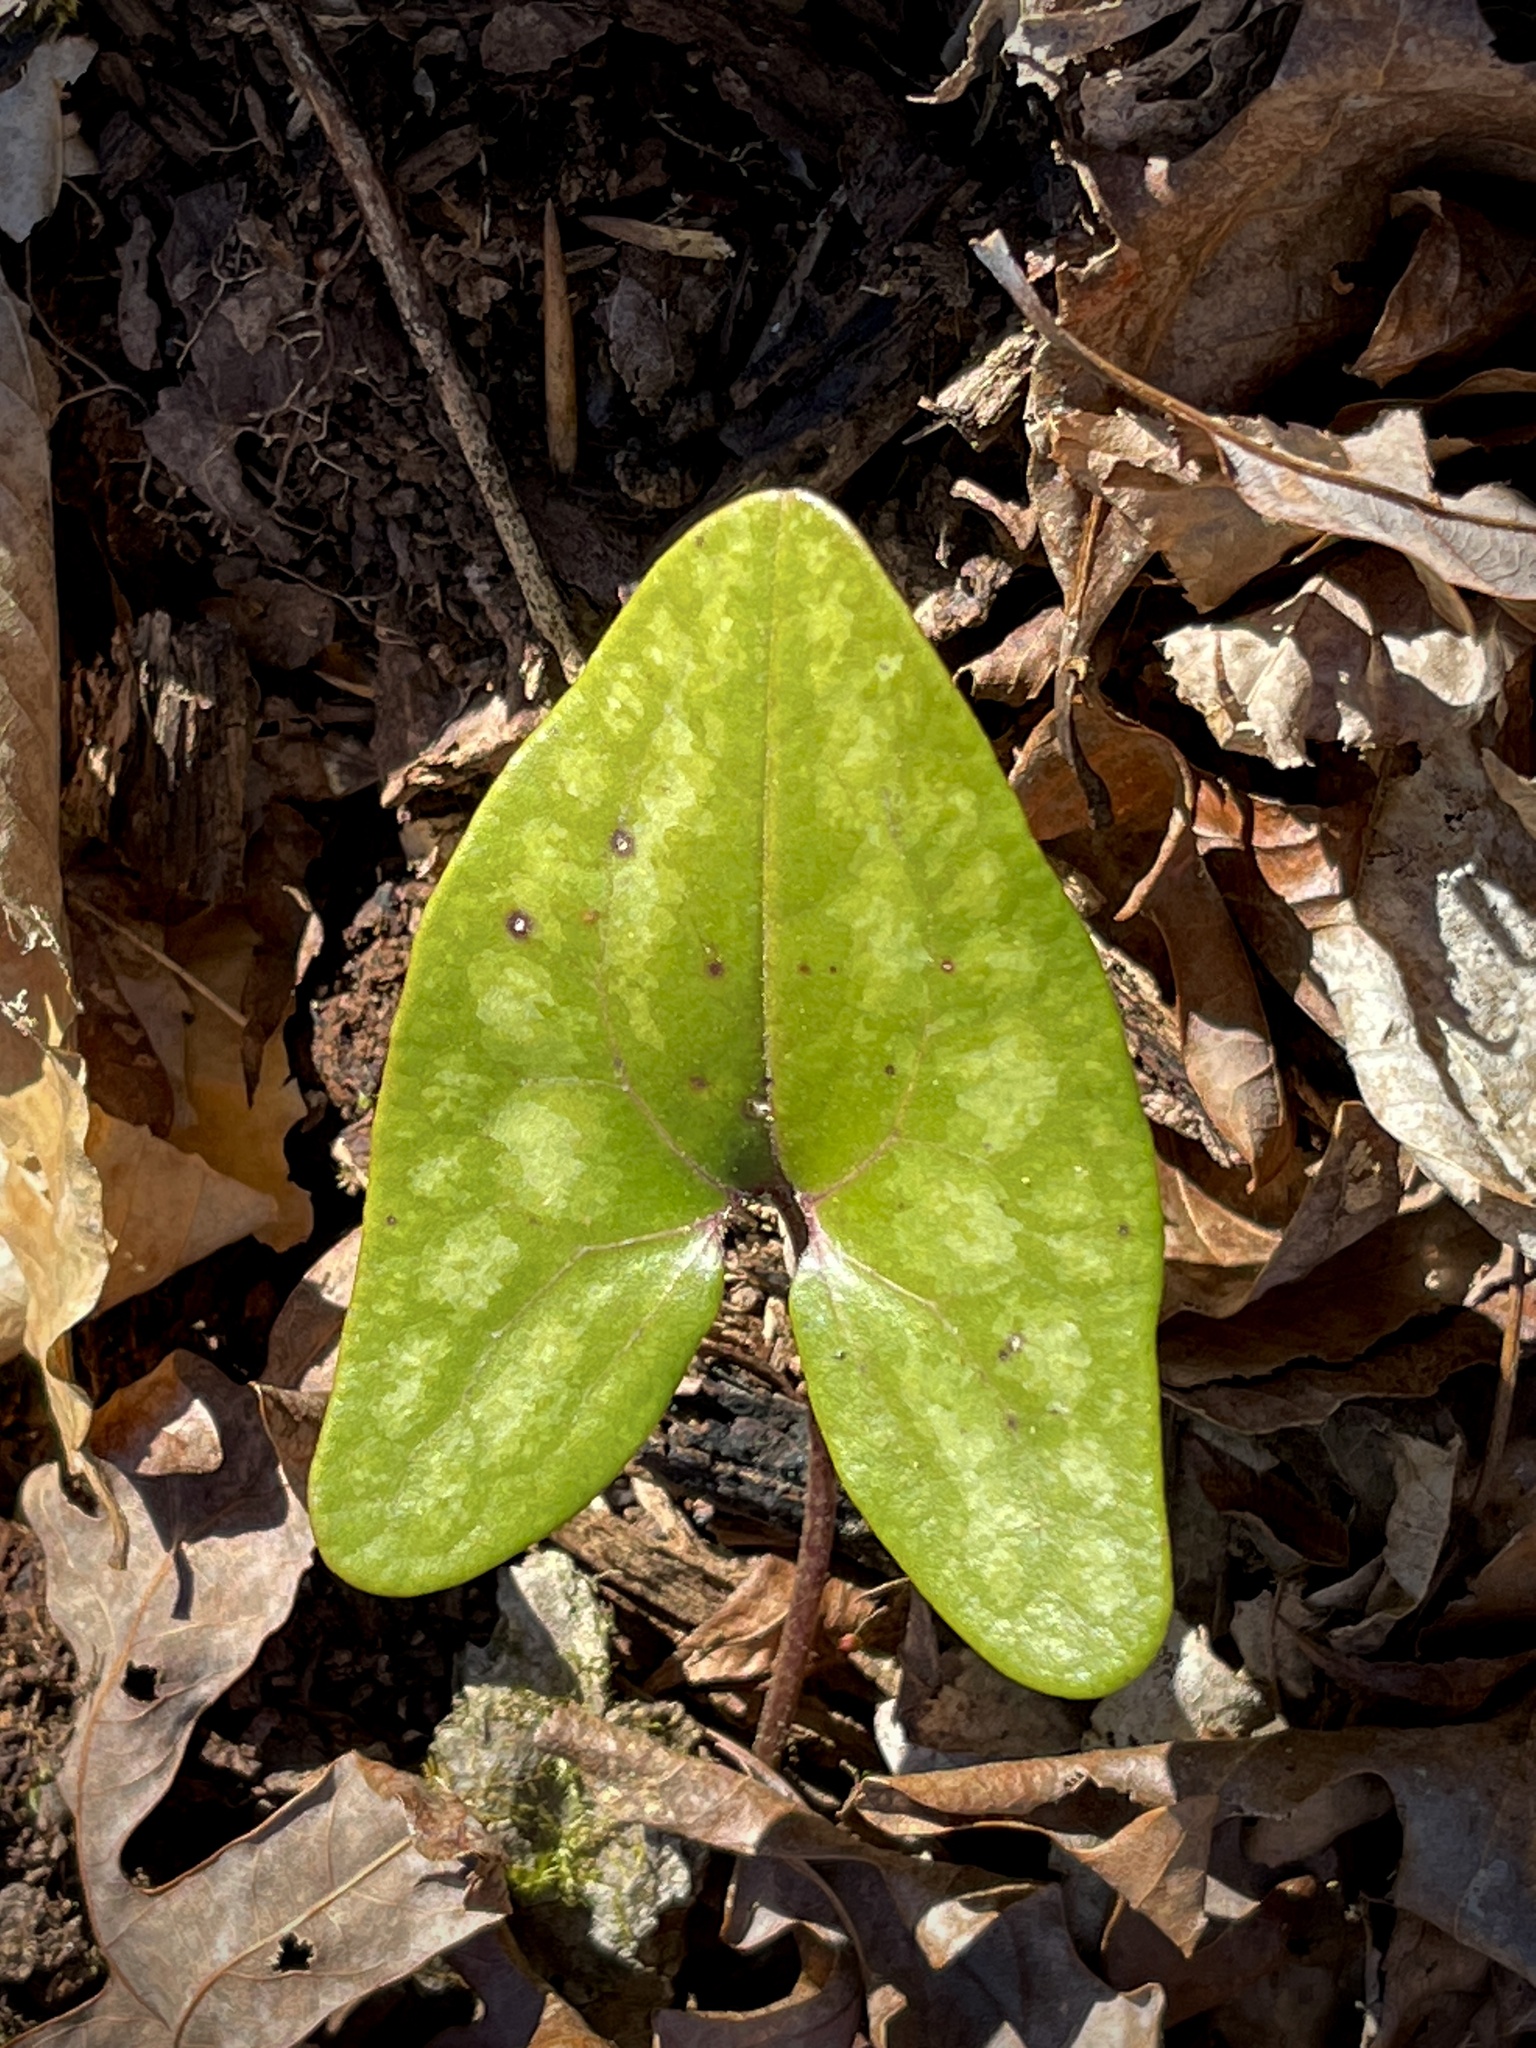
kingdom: Plantae
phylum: Tracheophyta
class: Magnoliopsida
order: Piperales
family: Aristolochiaceae
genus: Hexastylis
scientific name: Hexastylis arifolia
